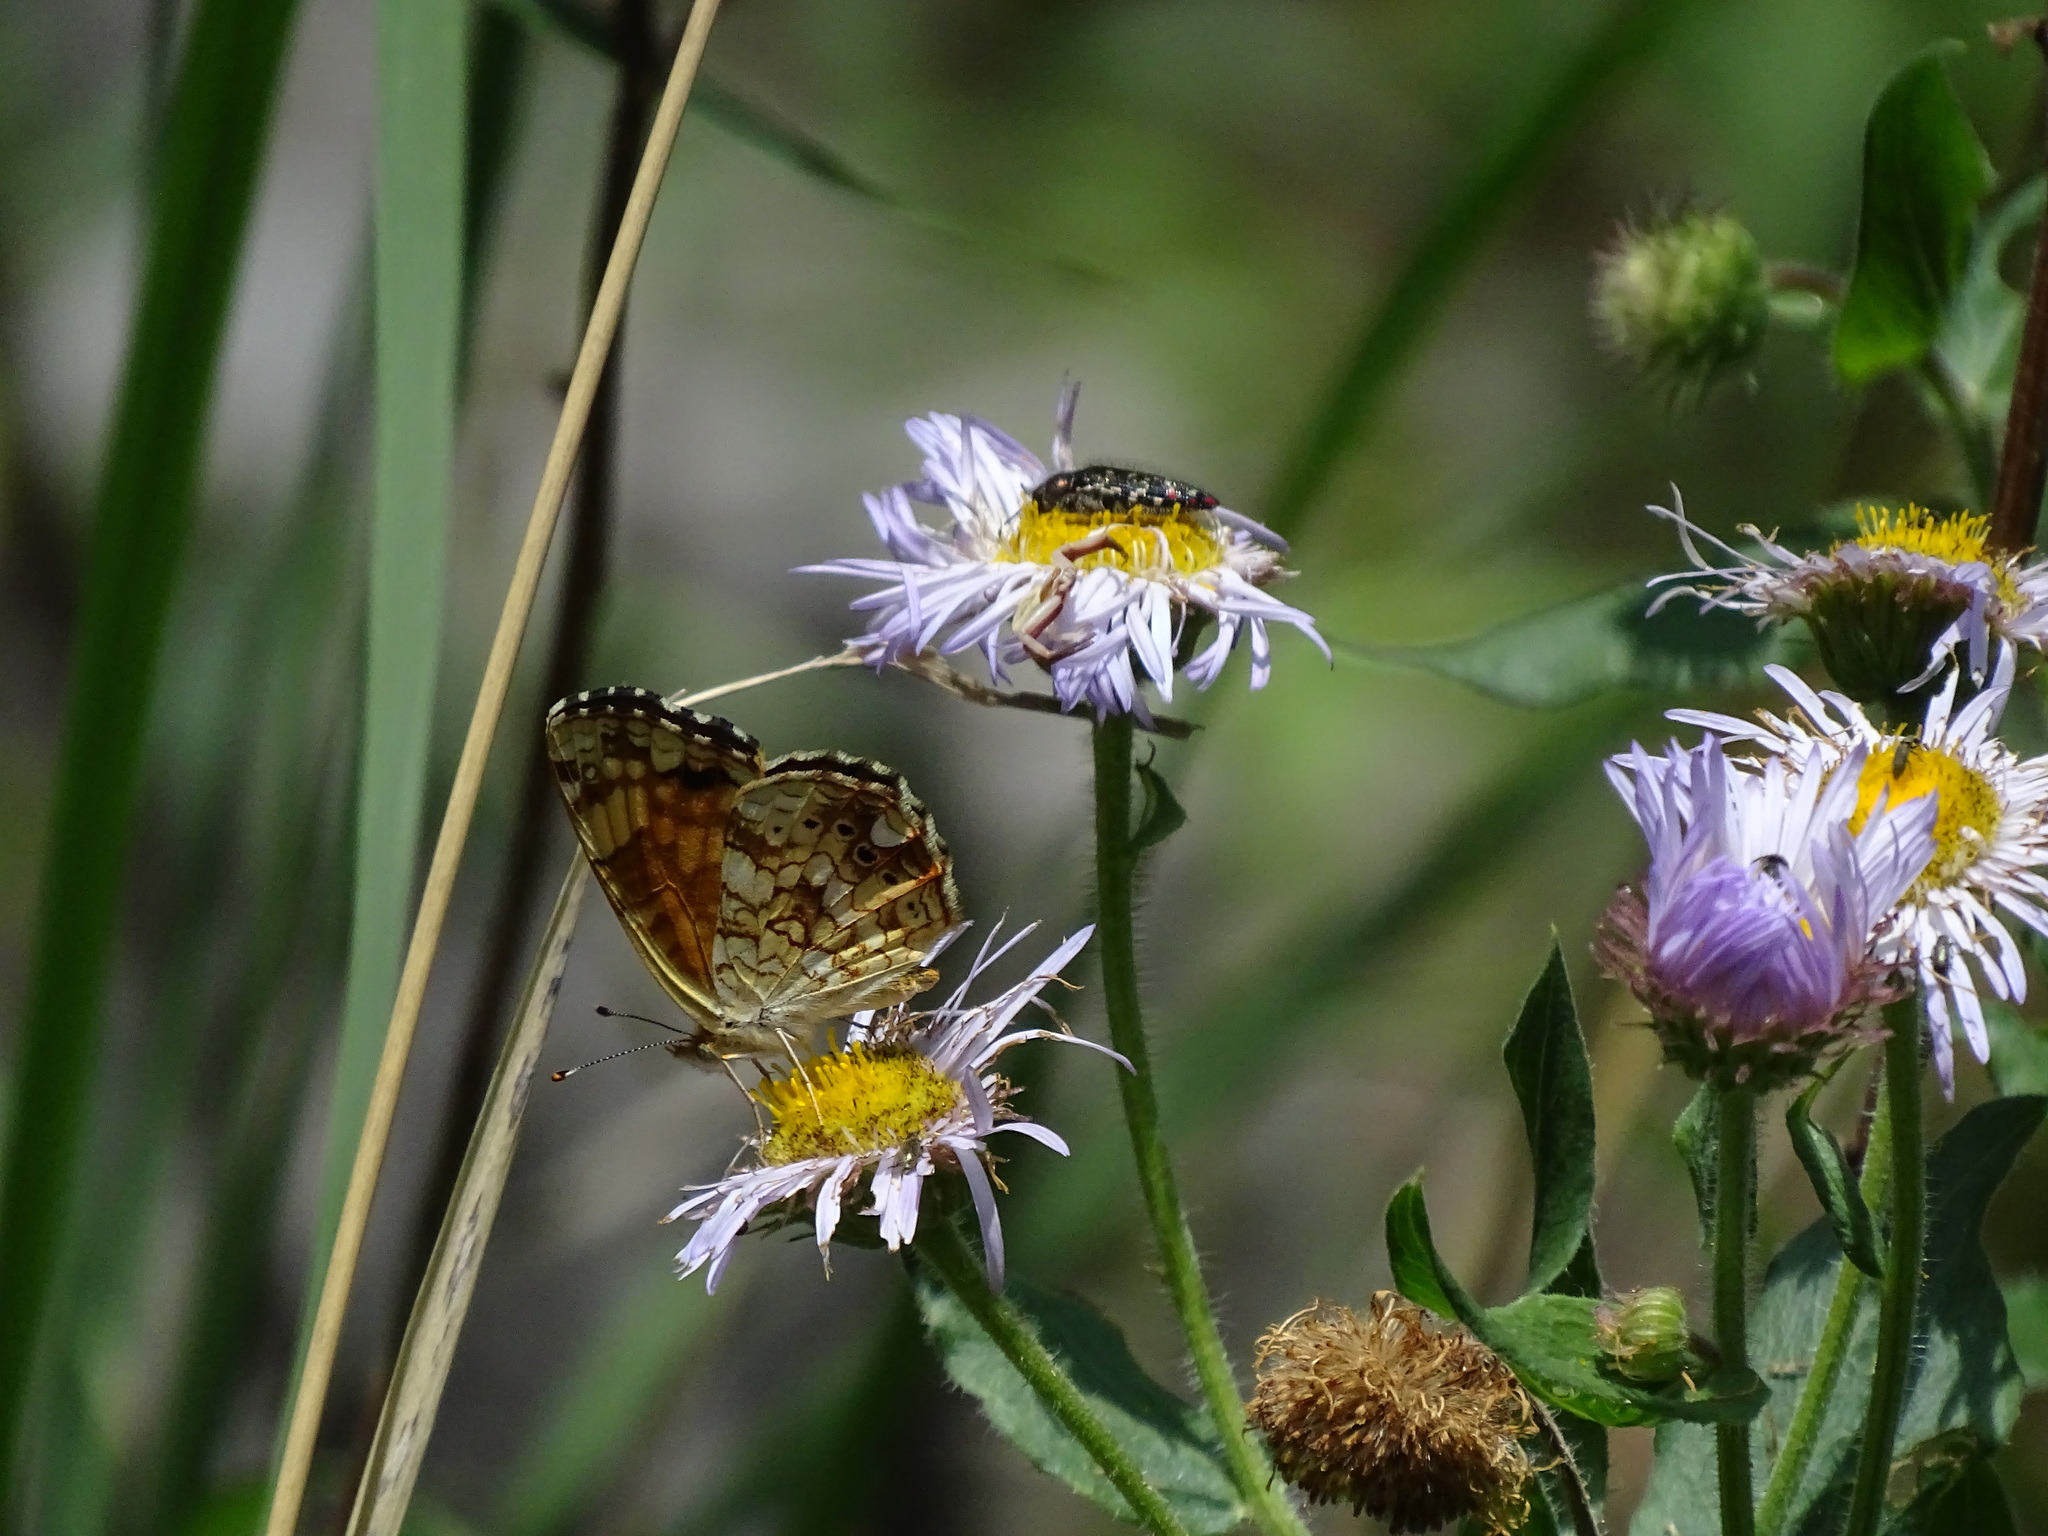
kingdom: Animalia
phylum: Arthropoda
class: Insecta
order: Lepidoptera
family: Nymphalidae
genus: Eresia
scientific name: Eresia aveyrona
